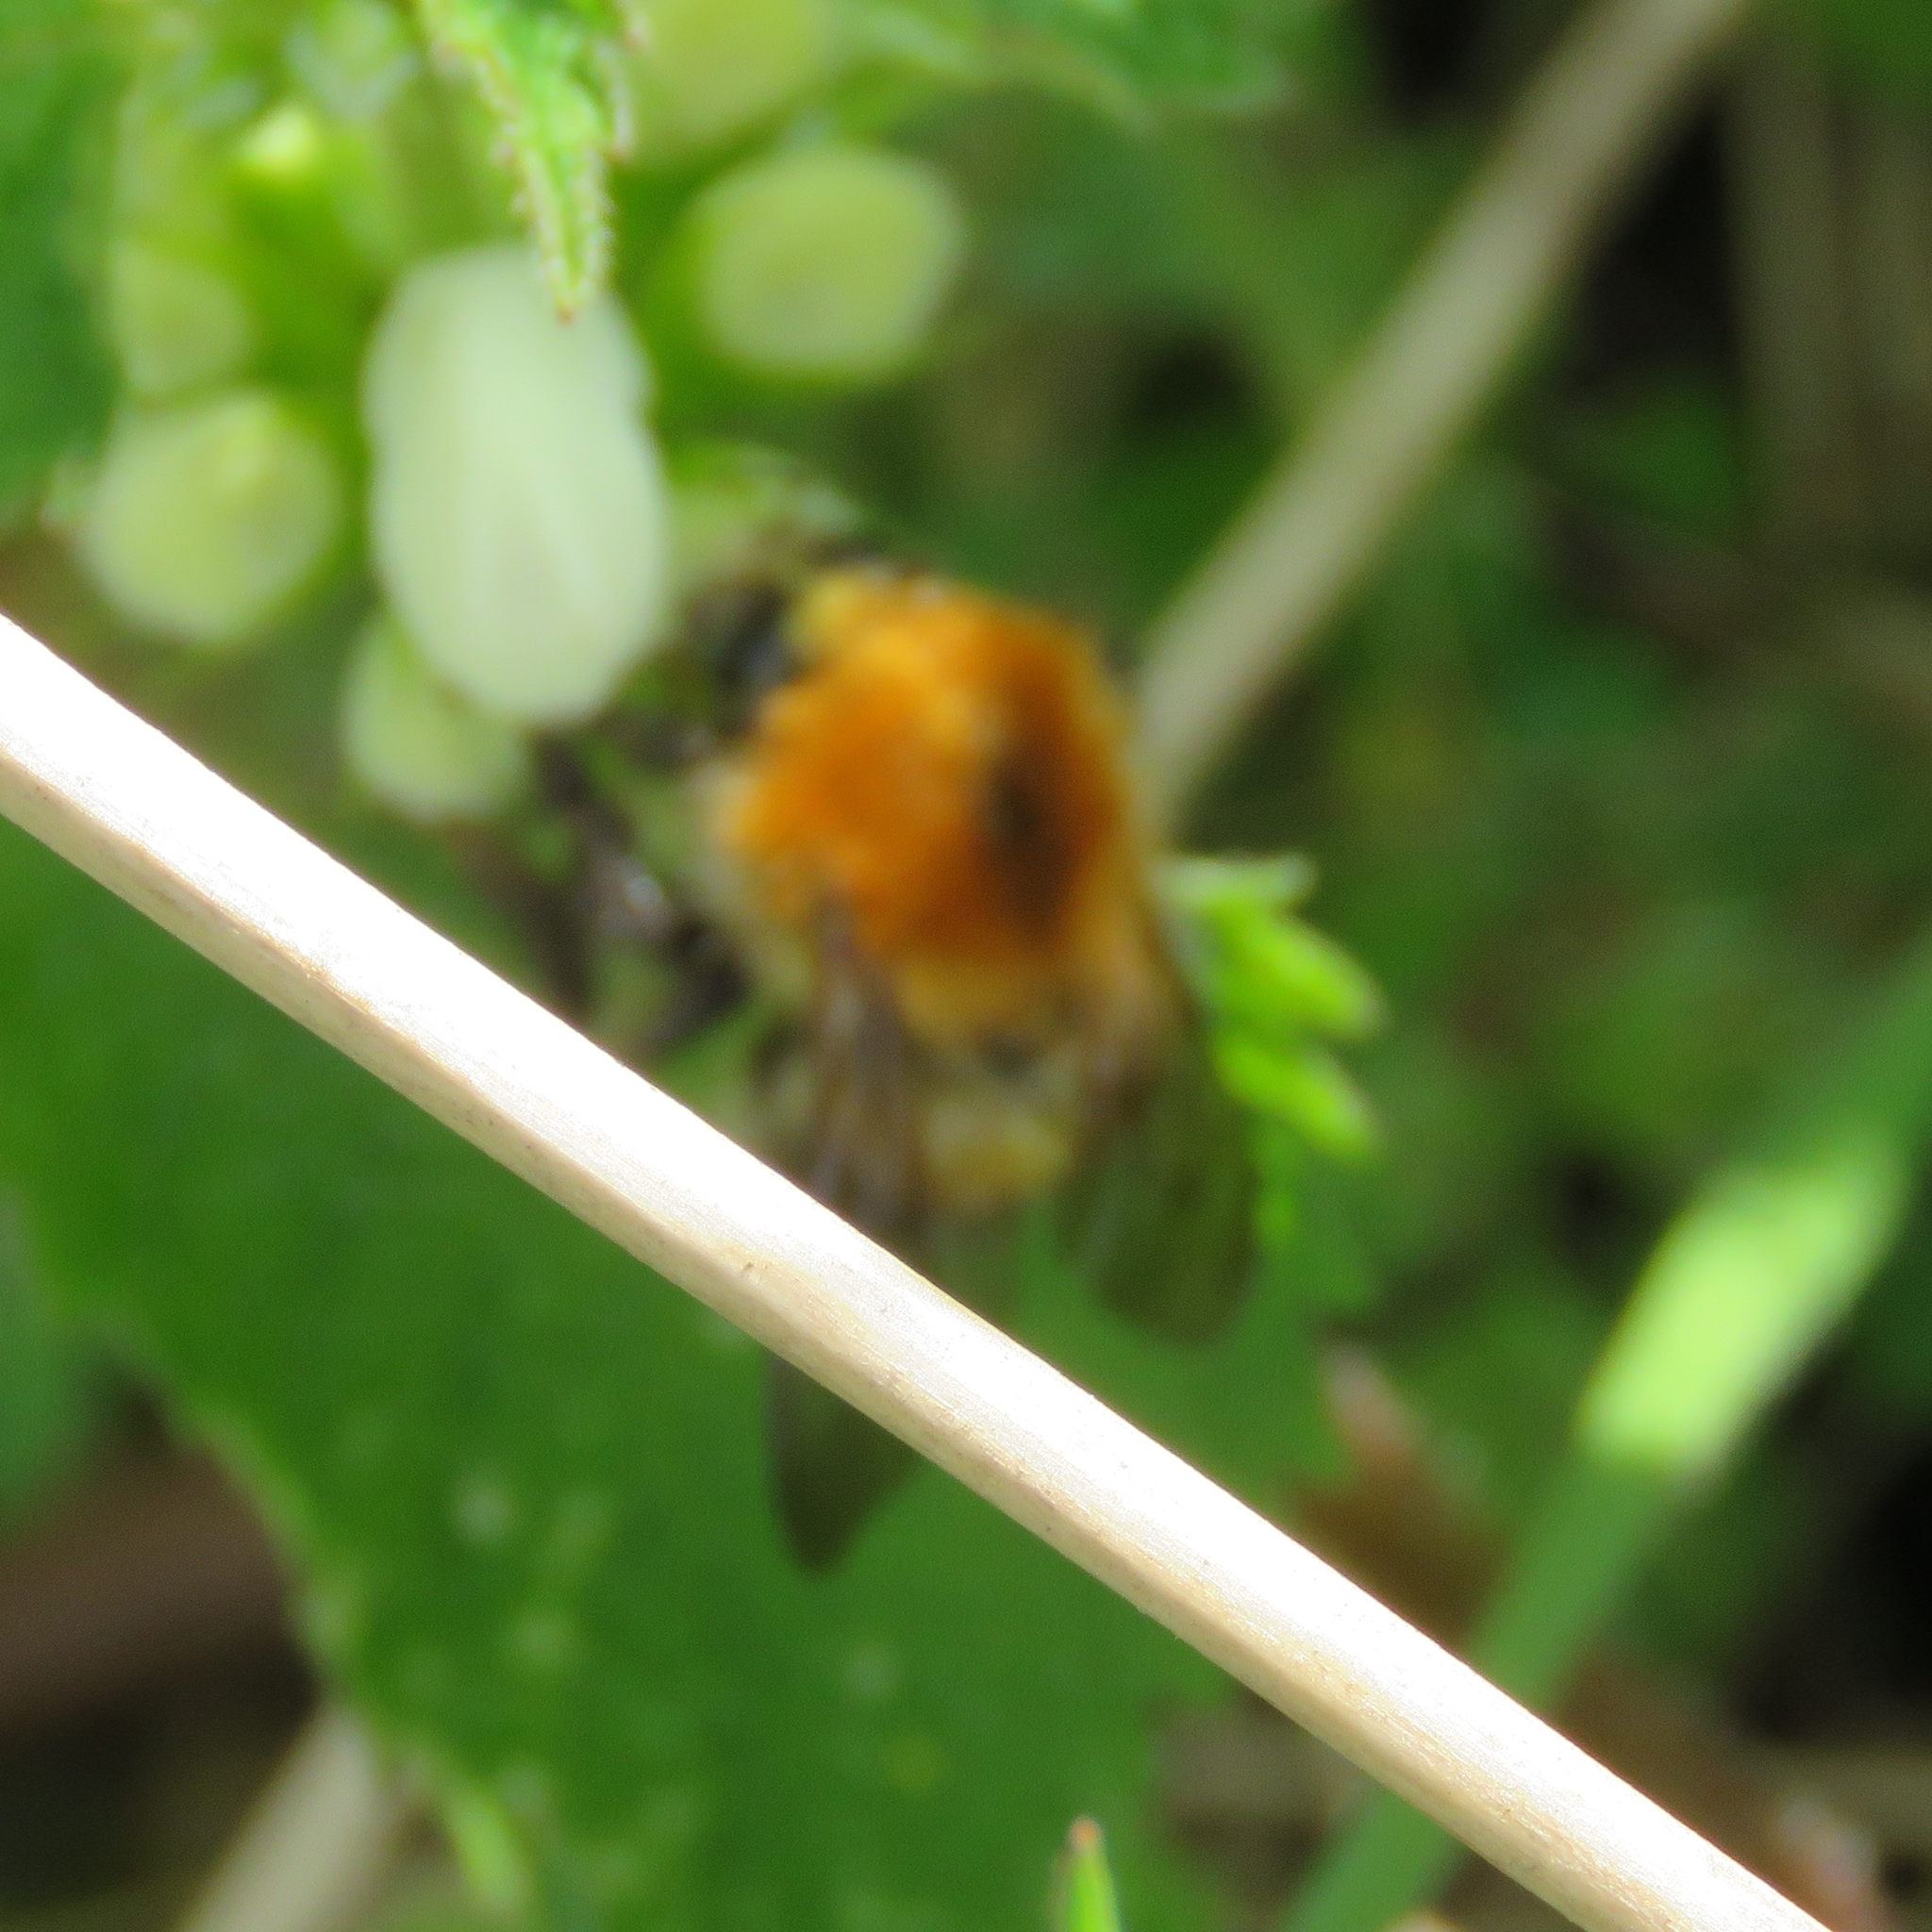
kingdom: Animalia
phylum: Arthropoda
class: Insecta
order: Hymenoptera
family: Apidae
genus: Bombus
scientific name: Bombus pascuorum
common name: Common carder bee
